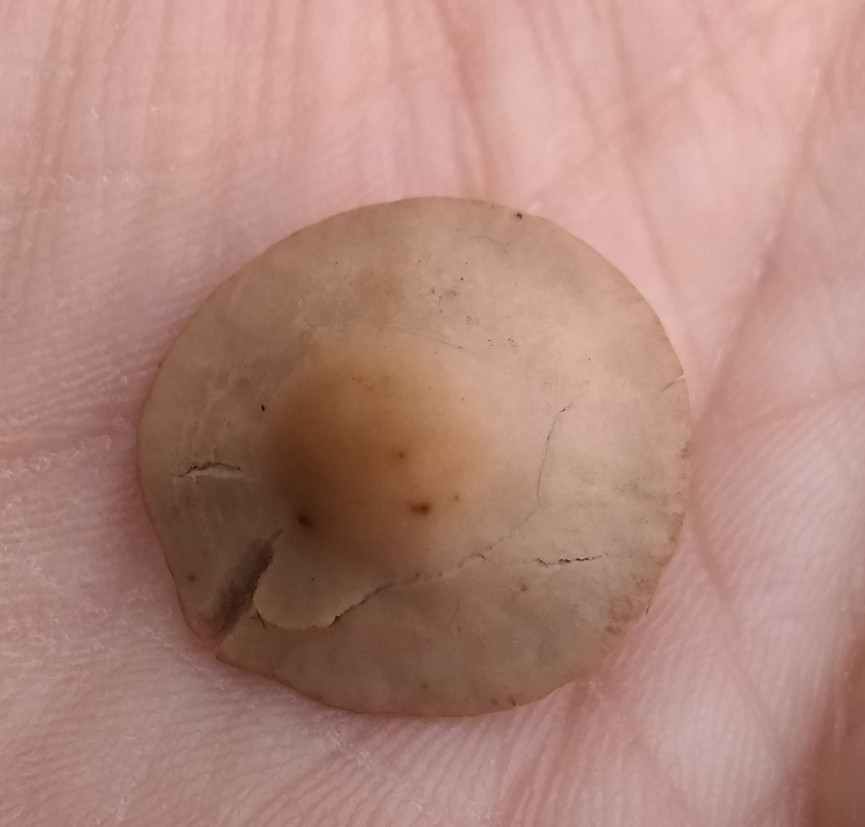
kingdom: Fungi
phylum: Basidiomycota
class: Agaricomycetes
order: Agaricales
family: Bolbitiaceae
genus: Panaeolina
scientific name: Panaeolina foenisecii
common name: Brown hay cap
